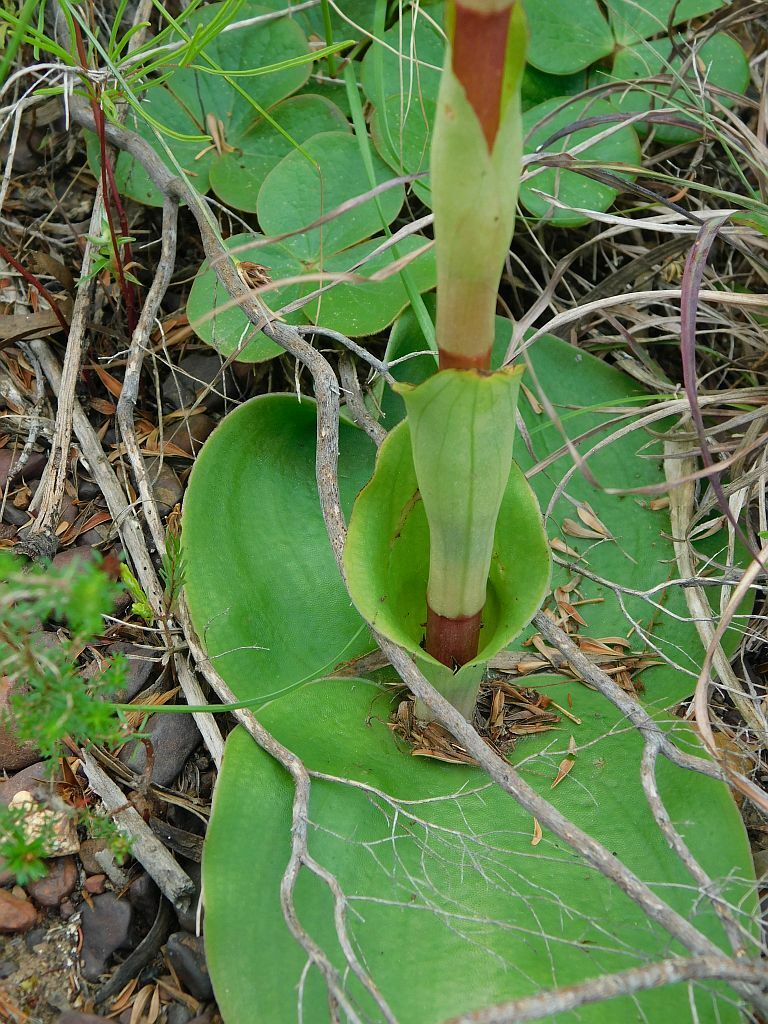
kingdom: Plantae
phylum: Tracheophyta
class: Liliopsida
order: Asparagales
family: Orchidaceae
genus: Satyrium
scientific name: Satyrium erectum
